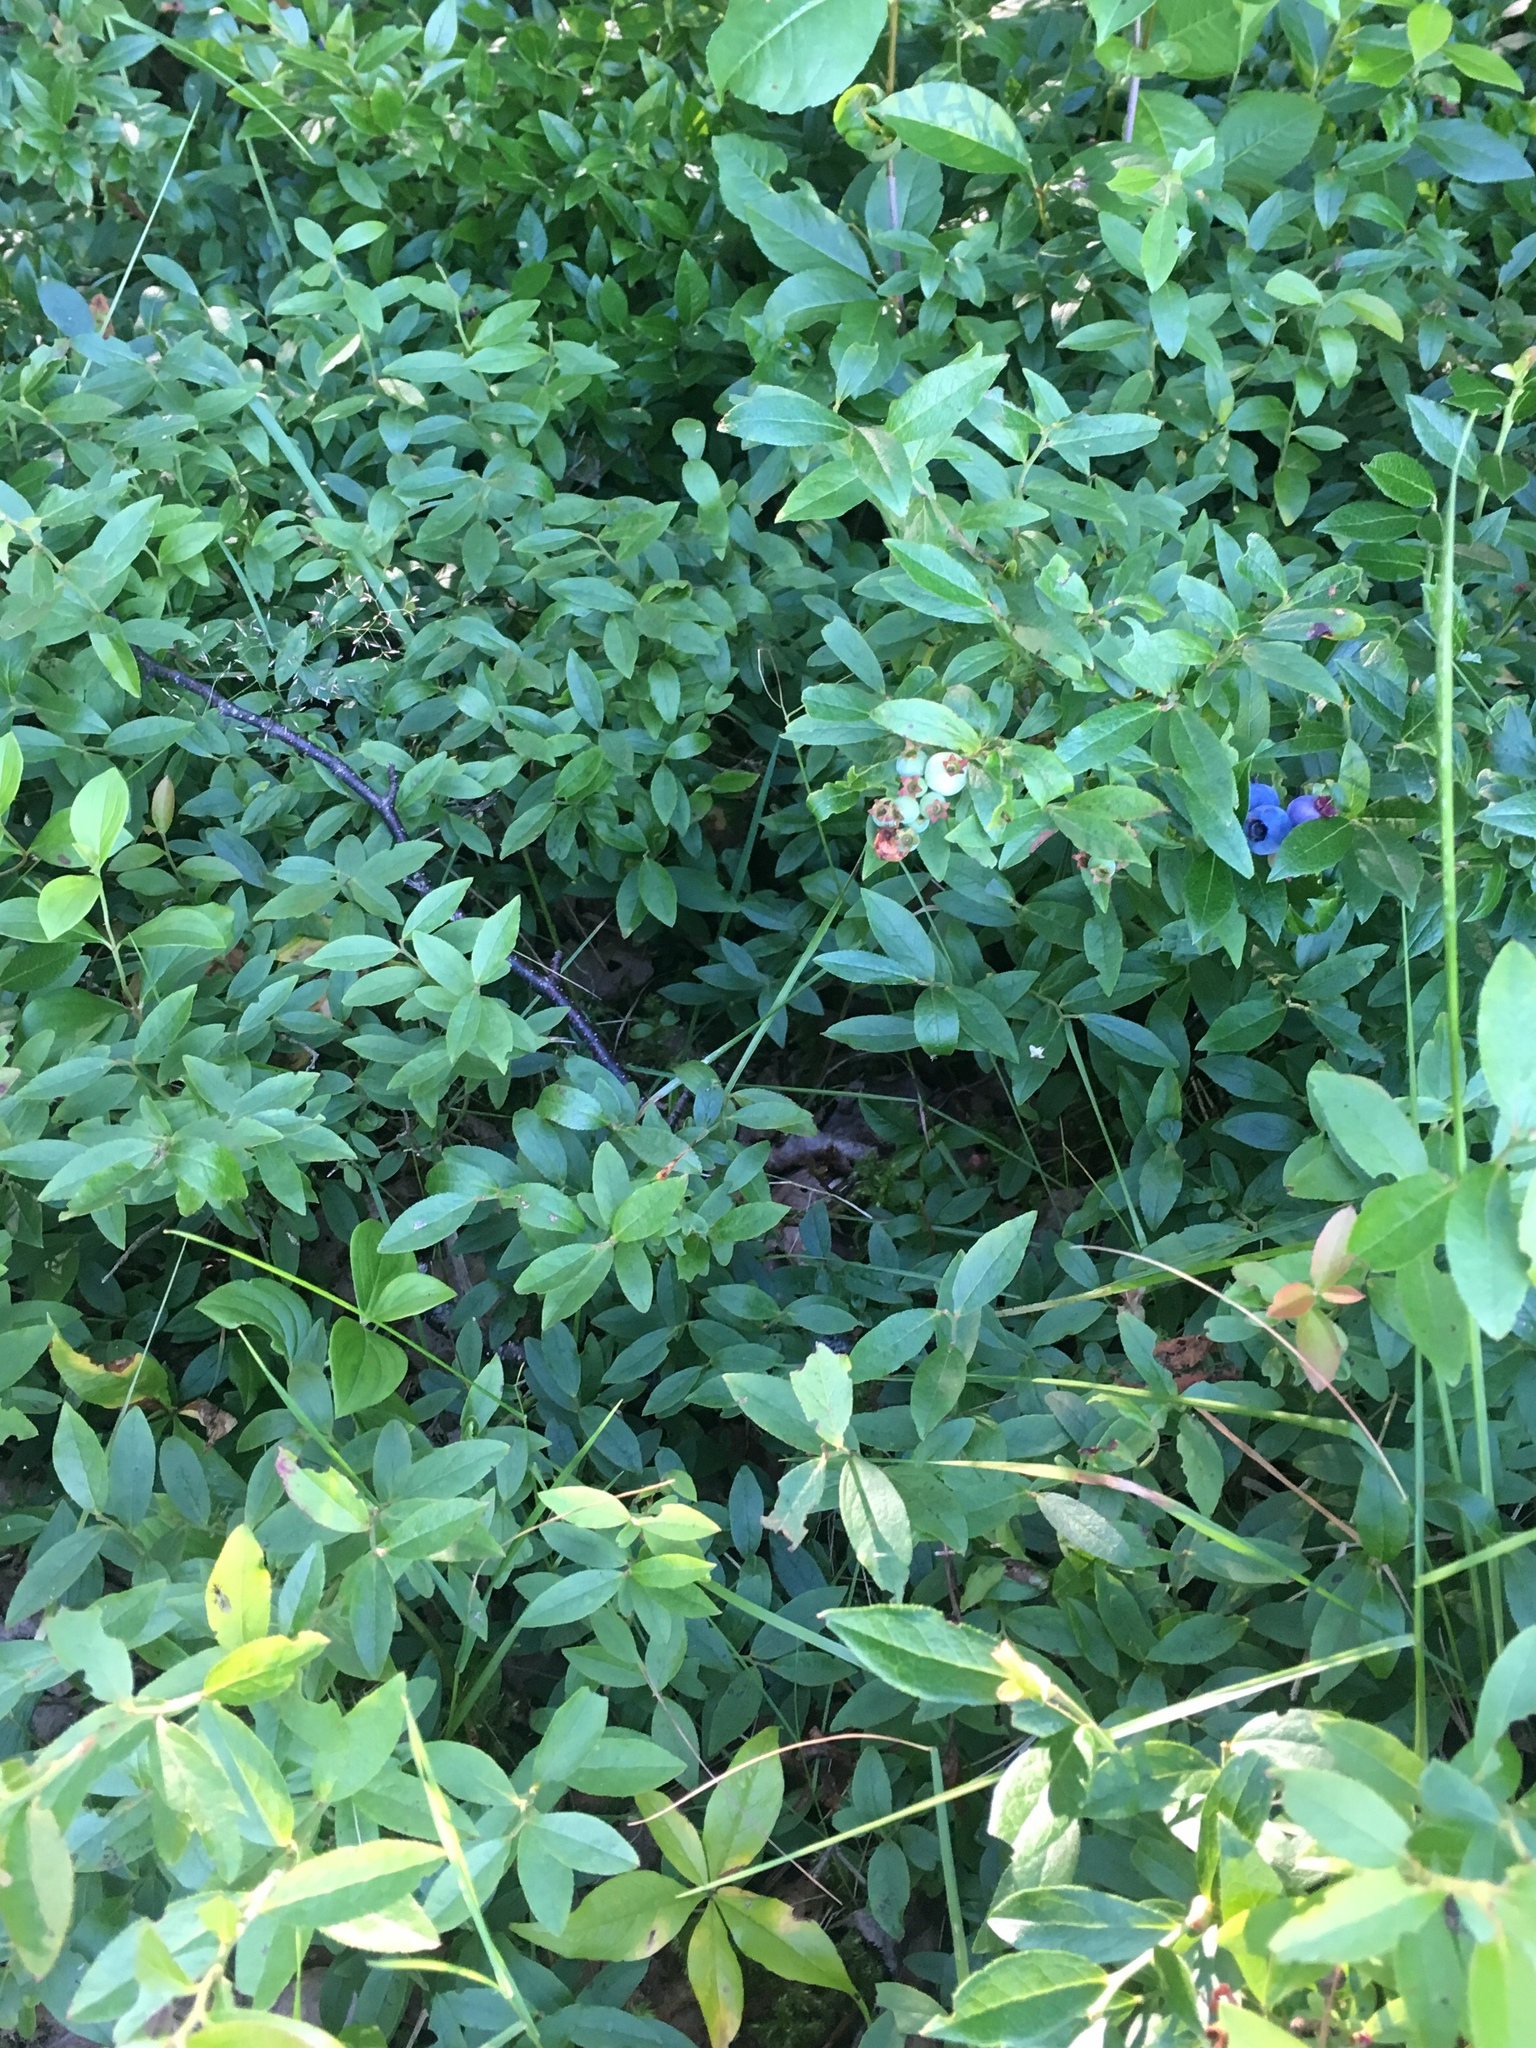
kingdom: Plantae
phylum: Tracheophyta
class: Magnoliopsida
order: Ericales
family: Ericaceae
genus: Vaccinium
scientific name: Vaccinium angustifolium
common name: Early lowbush blueberry
